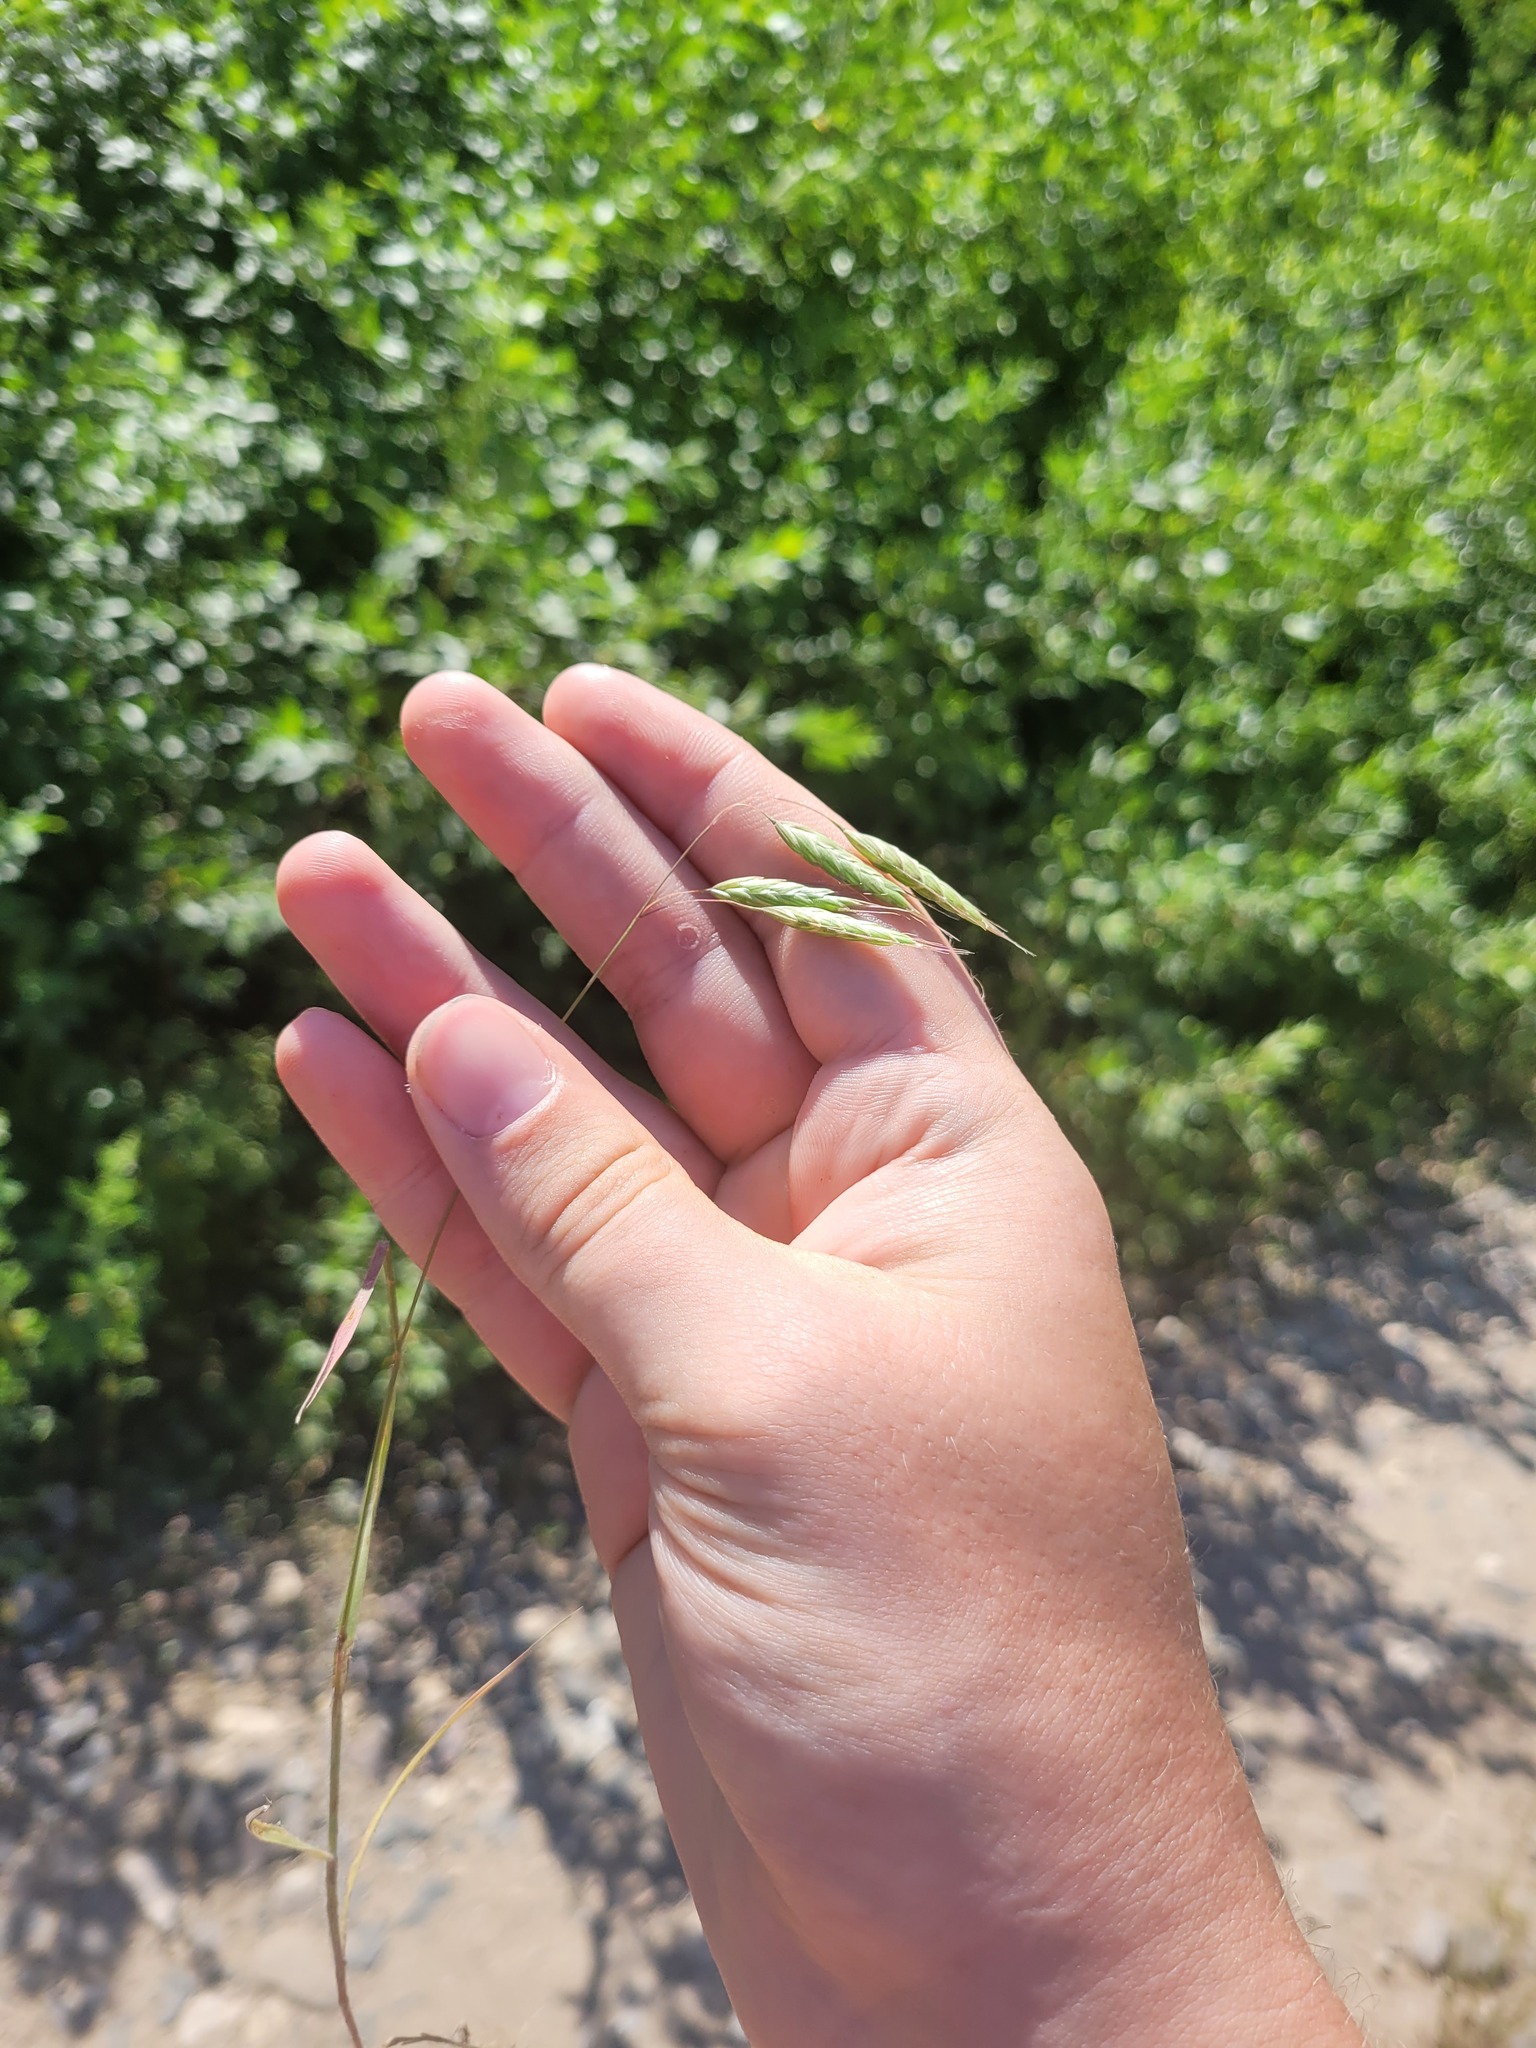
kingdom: Plantae
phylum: Tracheophyta
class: Liliopsida
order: Poales
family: Poaceae
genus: Bromus
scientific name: Bromus squarrosus
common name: Corn brome
